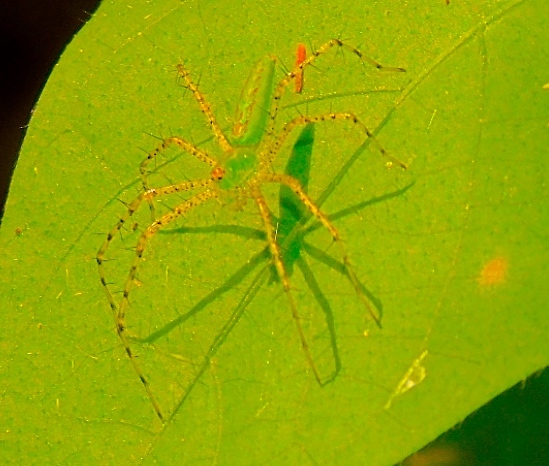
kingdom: Animalia
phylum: Arthropoda
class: Arachnida
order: Araneae
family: Oxyopidae
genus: Peucetia
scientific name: Peucetia viridans
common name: Lynx spiders
